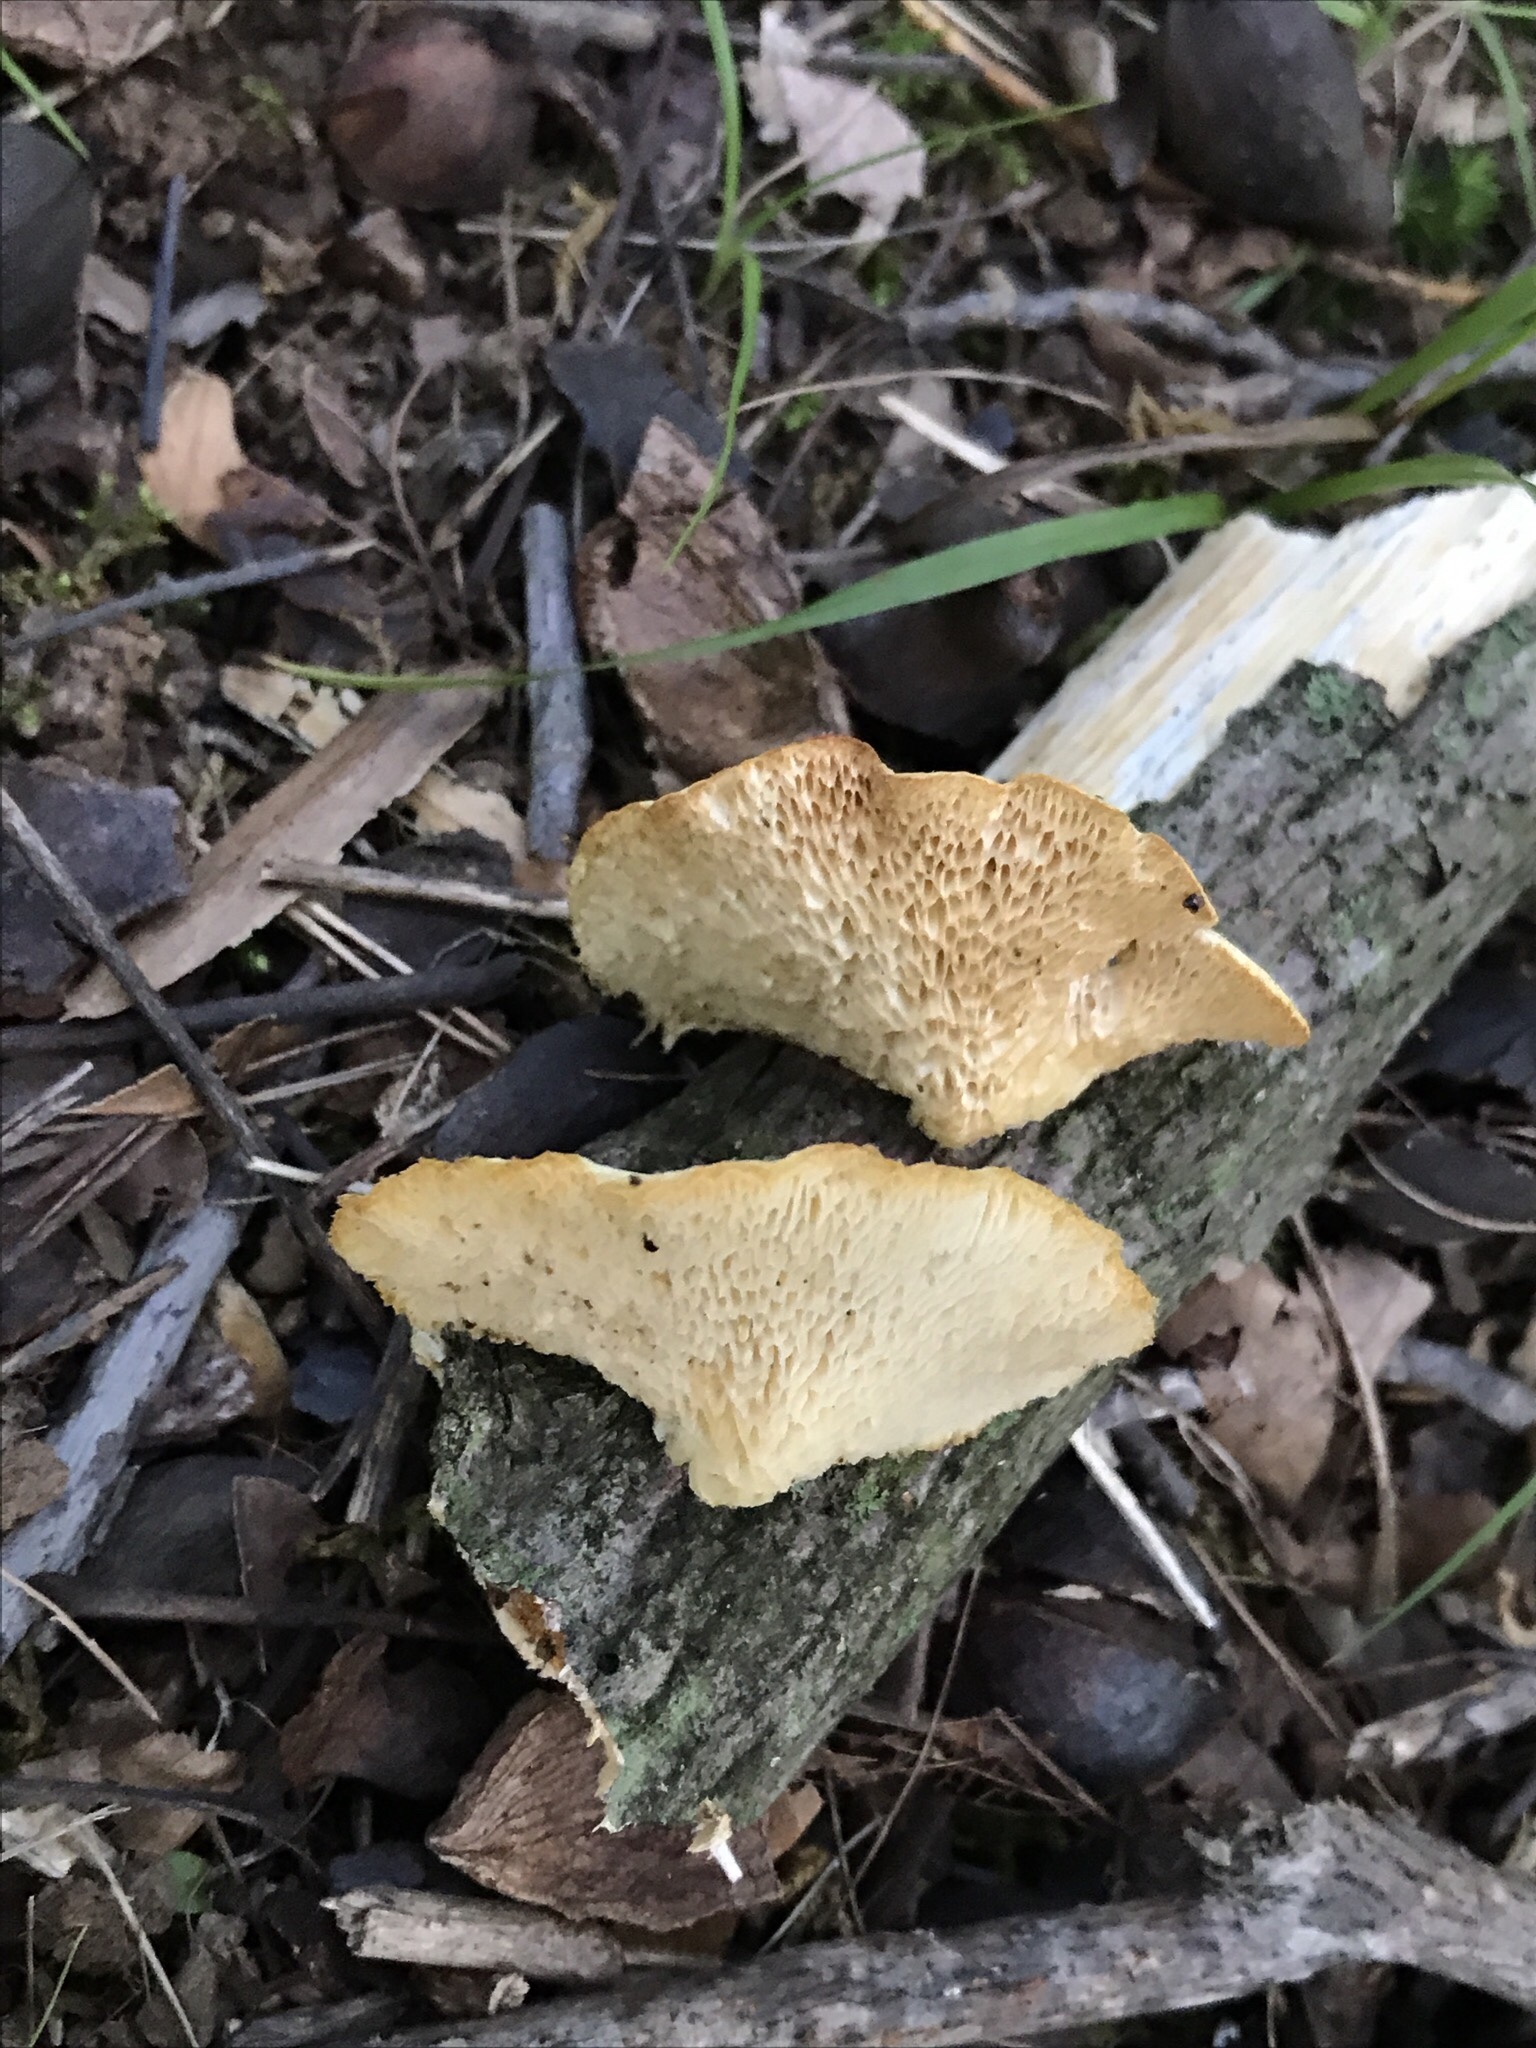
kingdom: Fungi
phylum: Basidiomycota
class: Agaricomycetes
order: Polyporales
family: Polyporaceae
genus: Neofavolus
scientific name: Neofavolus alveolaris
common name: Hexagonal-pored polypore
